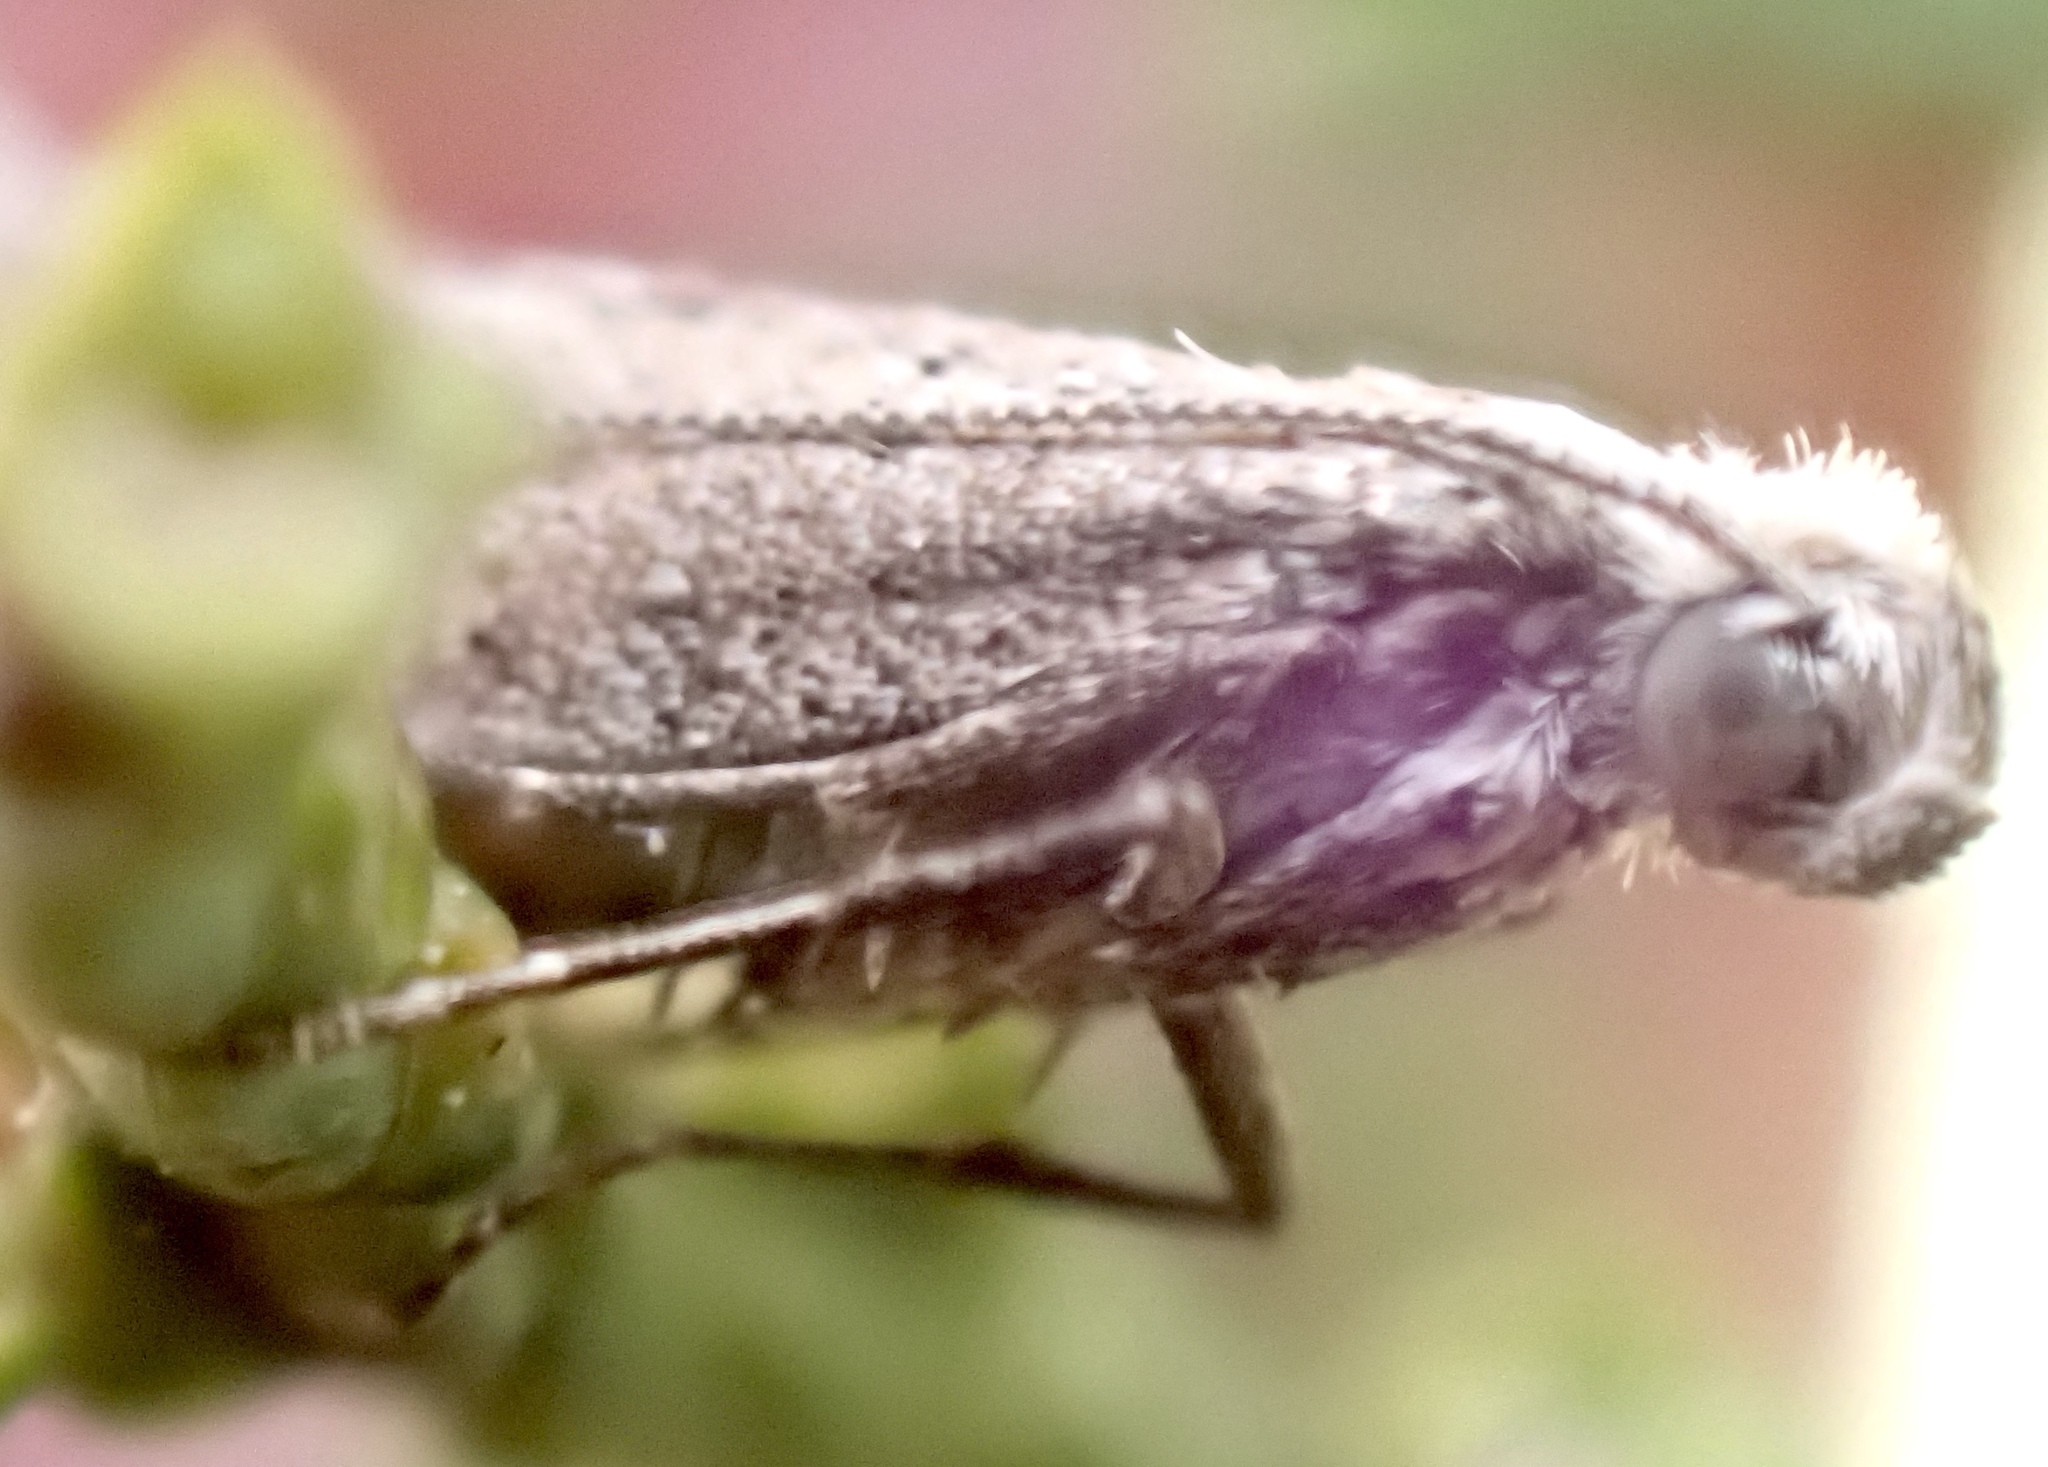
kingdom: Animalia
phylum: Arthropoda
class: Insecta
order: Lepidoptera
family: Glyphipterigidae
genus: Acrolepia
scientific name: Acrolepia Acrolepiopsis leucoscia
